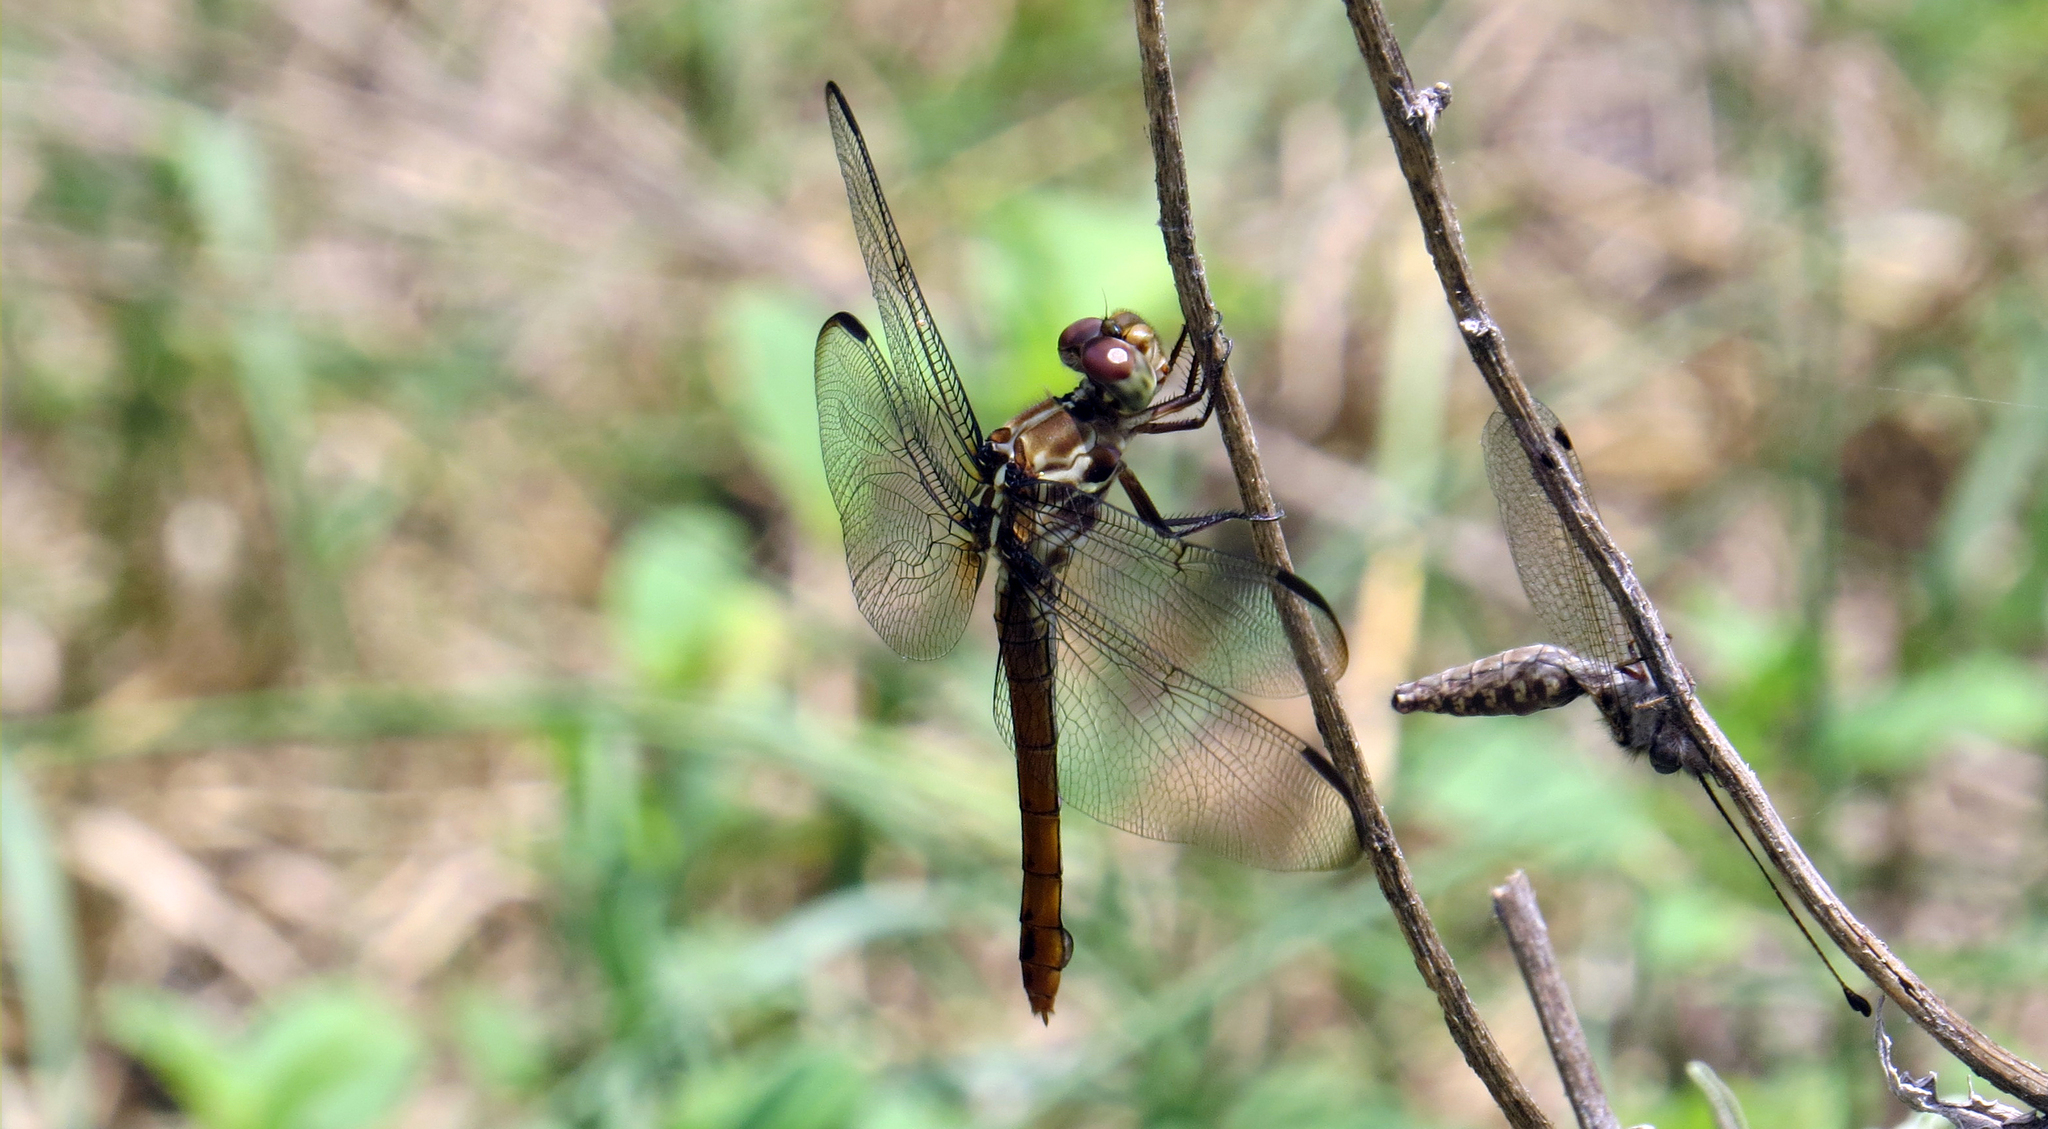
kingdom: Animalia
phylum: Arthropoda
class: Insecta
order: Odonata
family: Libellulidae
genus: Orthemis
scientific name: Orthemis ferruginea
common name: Roseate skimmer
